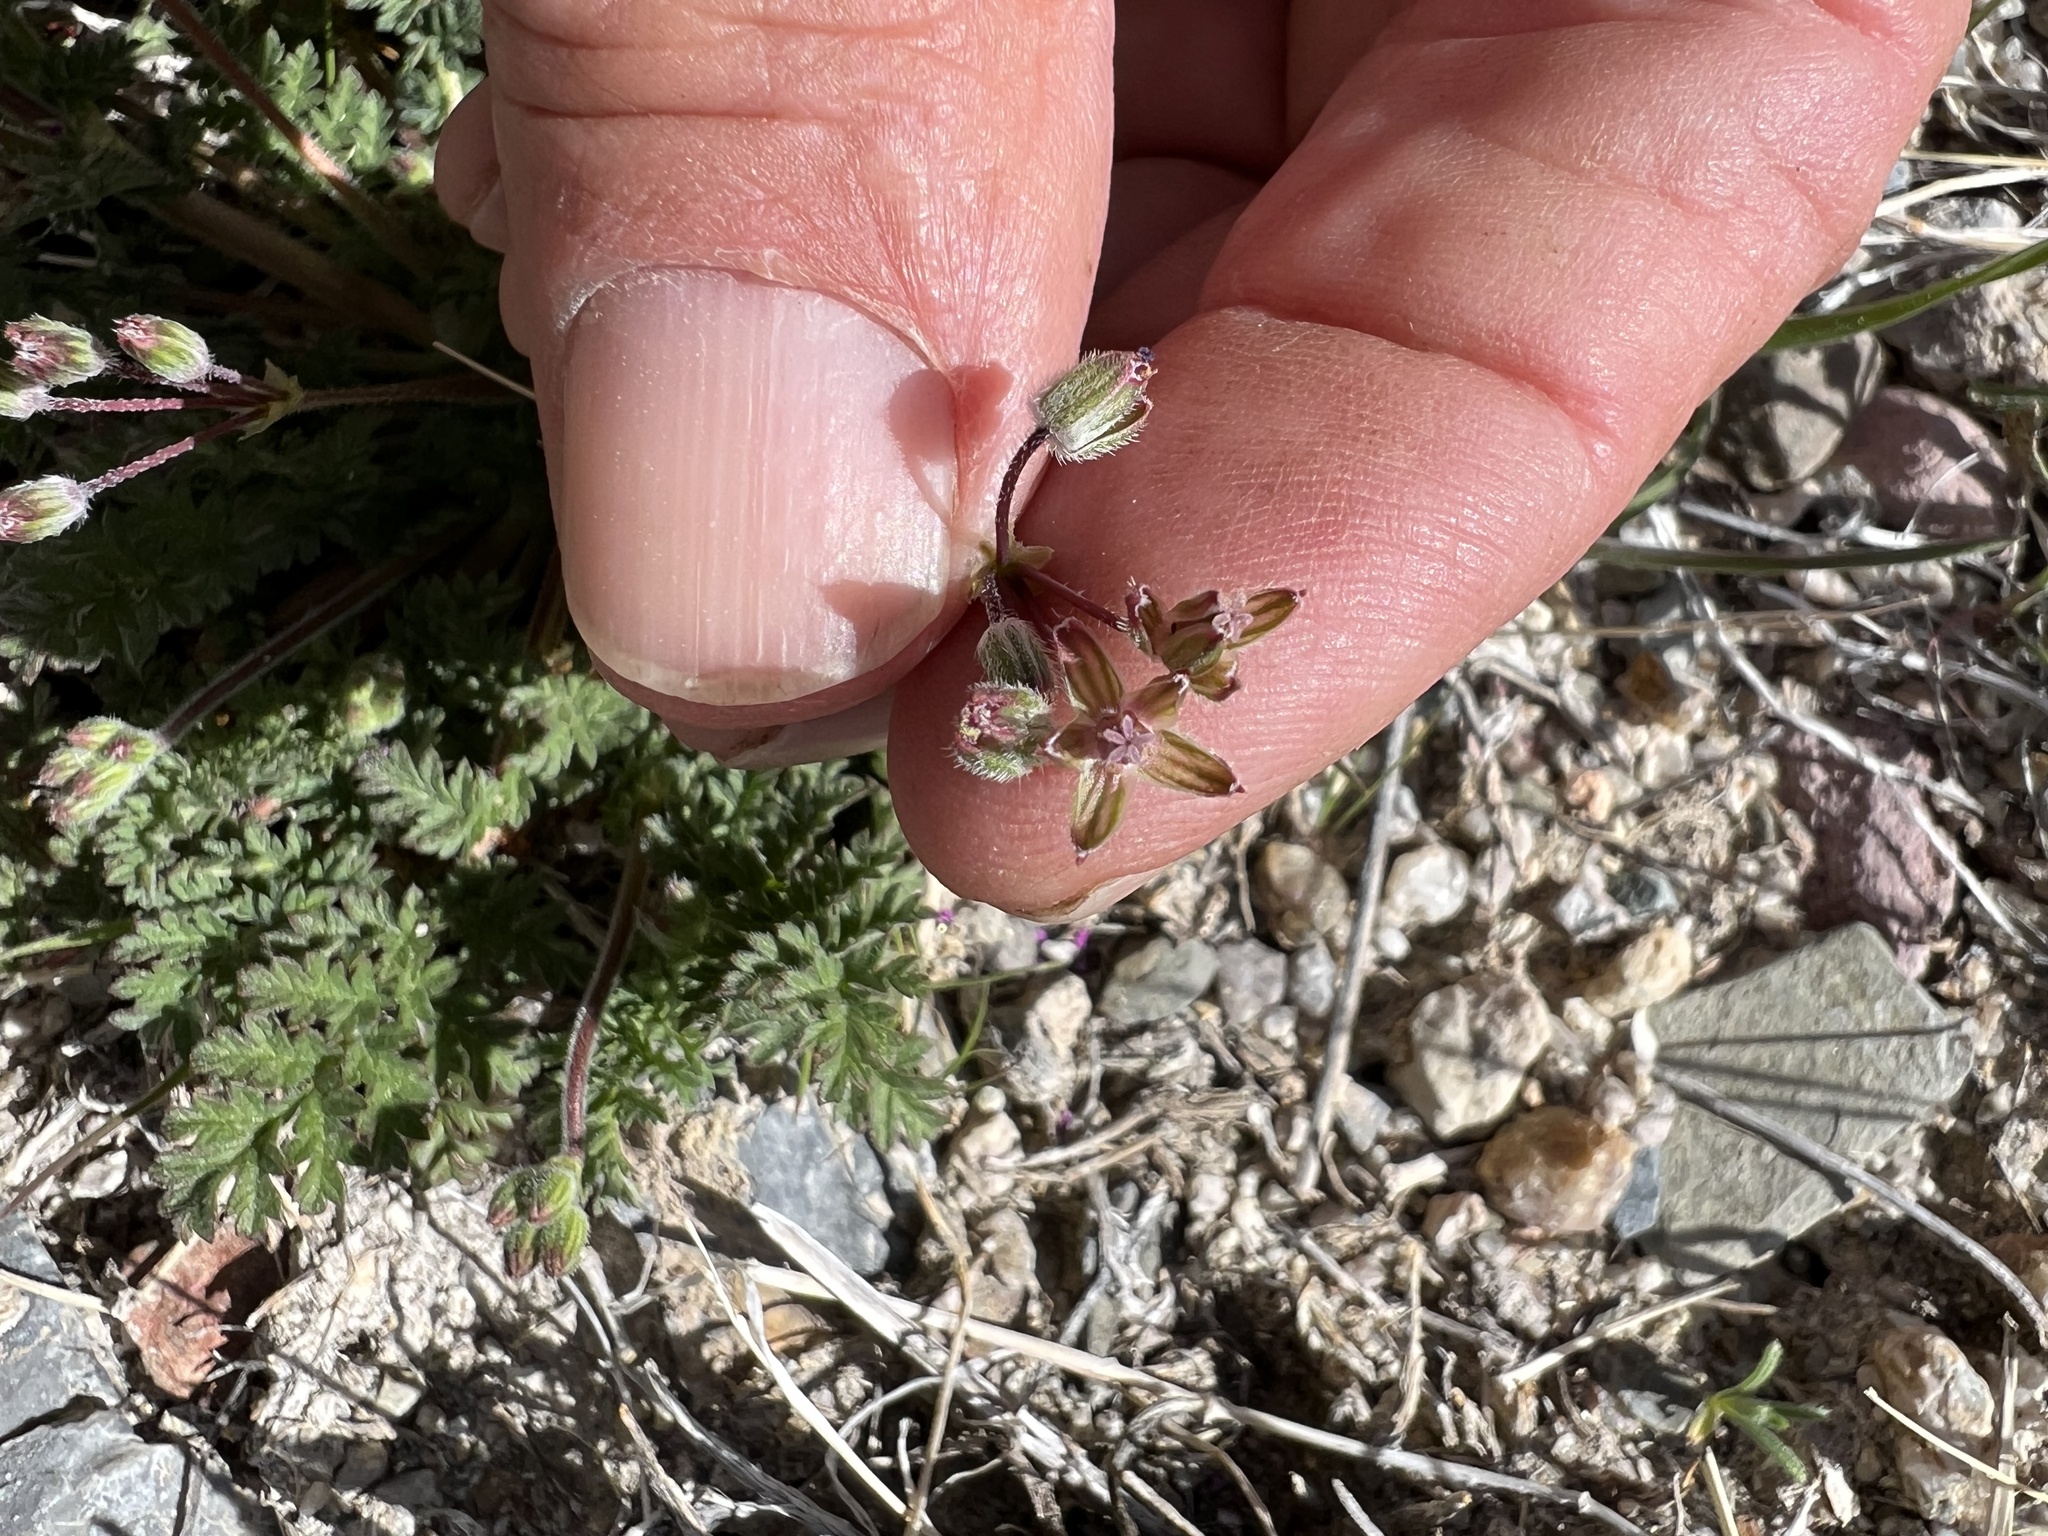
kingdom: Plantae
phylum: Tracheophyta
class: Magnoliopsida
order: Geraniales
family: Geraniaceae
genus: Erodium
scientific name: Erodium cicutarium
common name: Common stork's-bill
